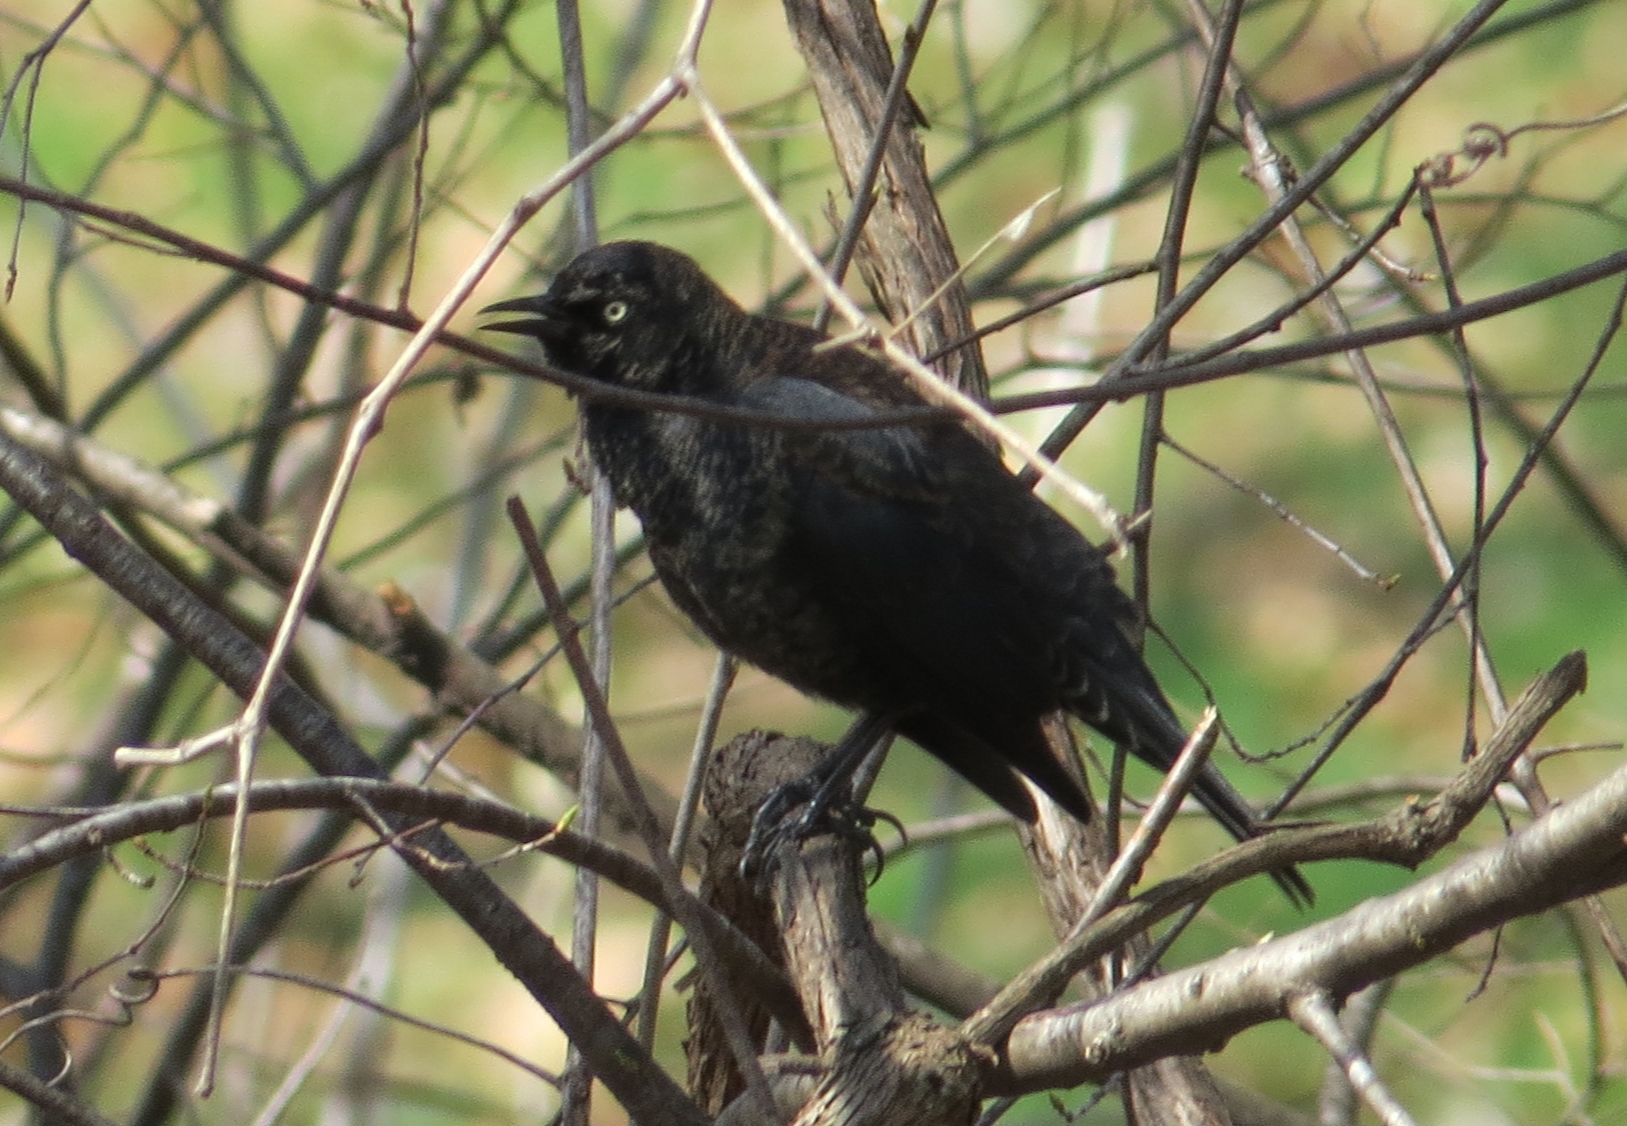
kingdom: Animalia
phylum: Chordata
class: Aves
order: Passeriformes
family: Icteridae
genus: Euphagus
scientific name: Euphagus carolinus
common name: Rusty blackbird
